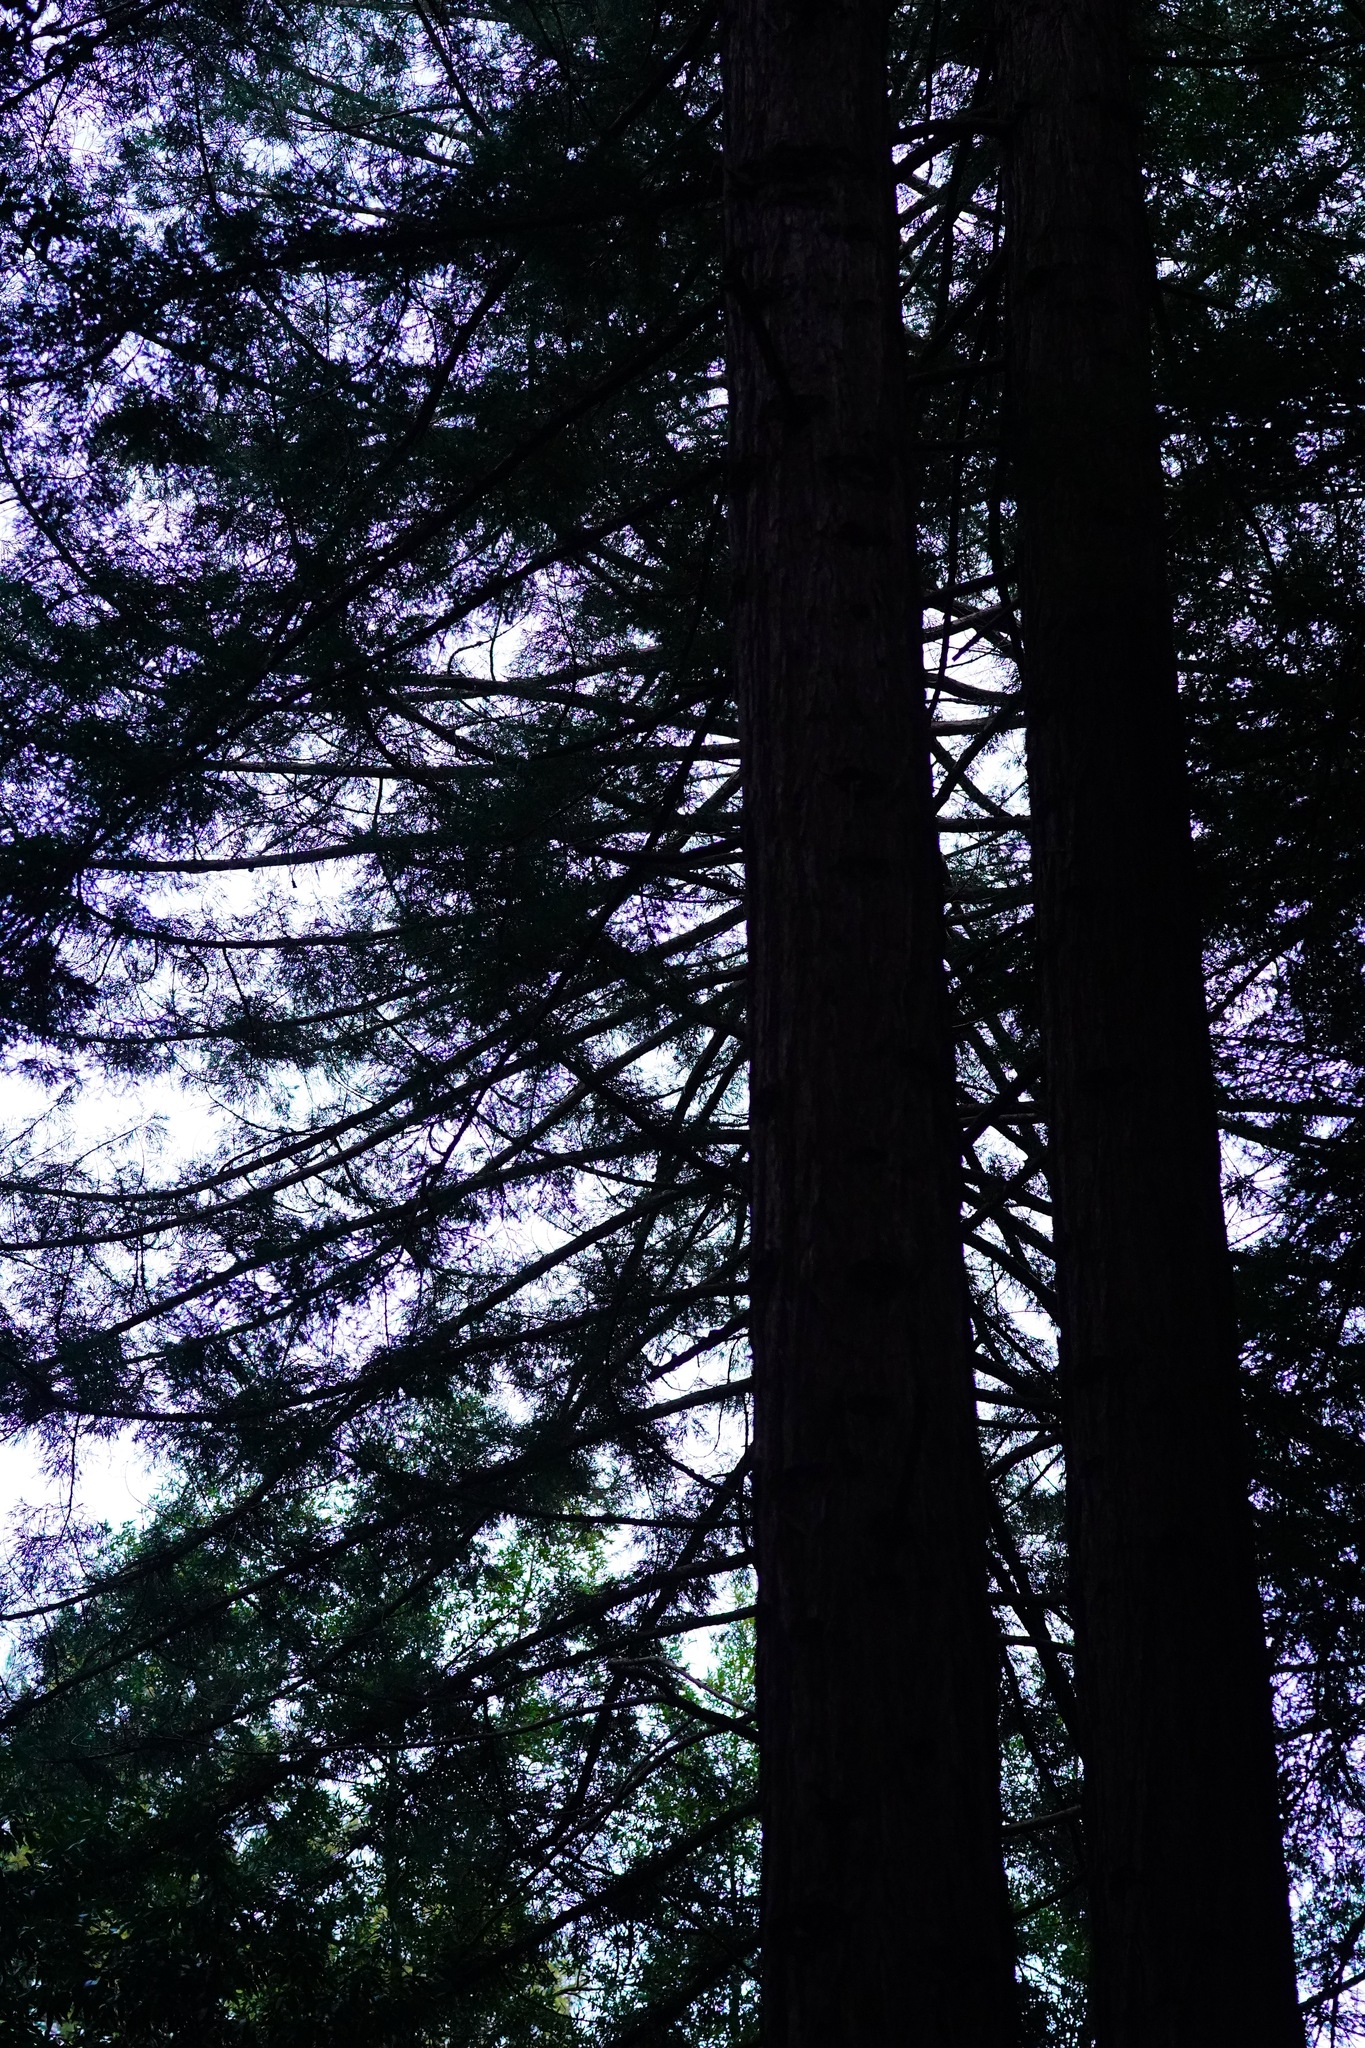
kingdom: Plantae
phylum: Tracheophyta
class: Pinopsida
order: Pinales
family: Cupressaceae
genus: Sequoia
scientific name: Sequoia sempervirens
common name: Coast redwood
